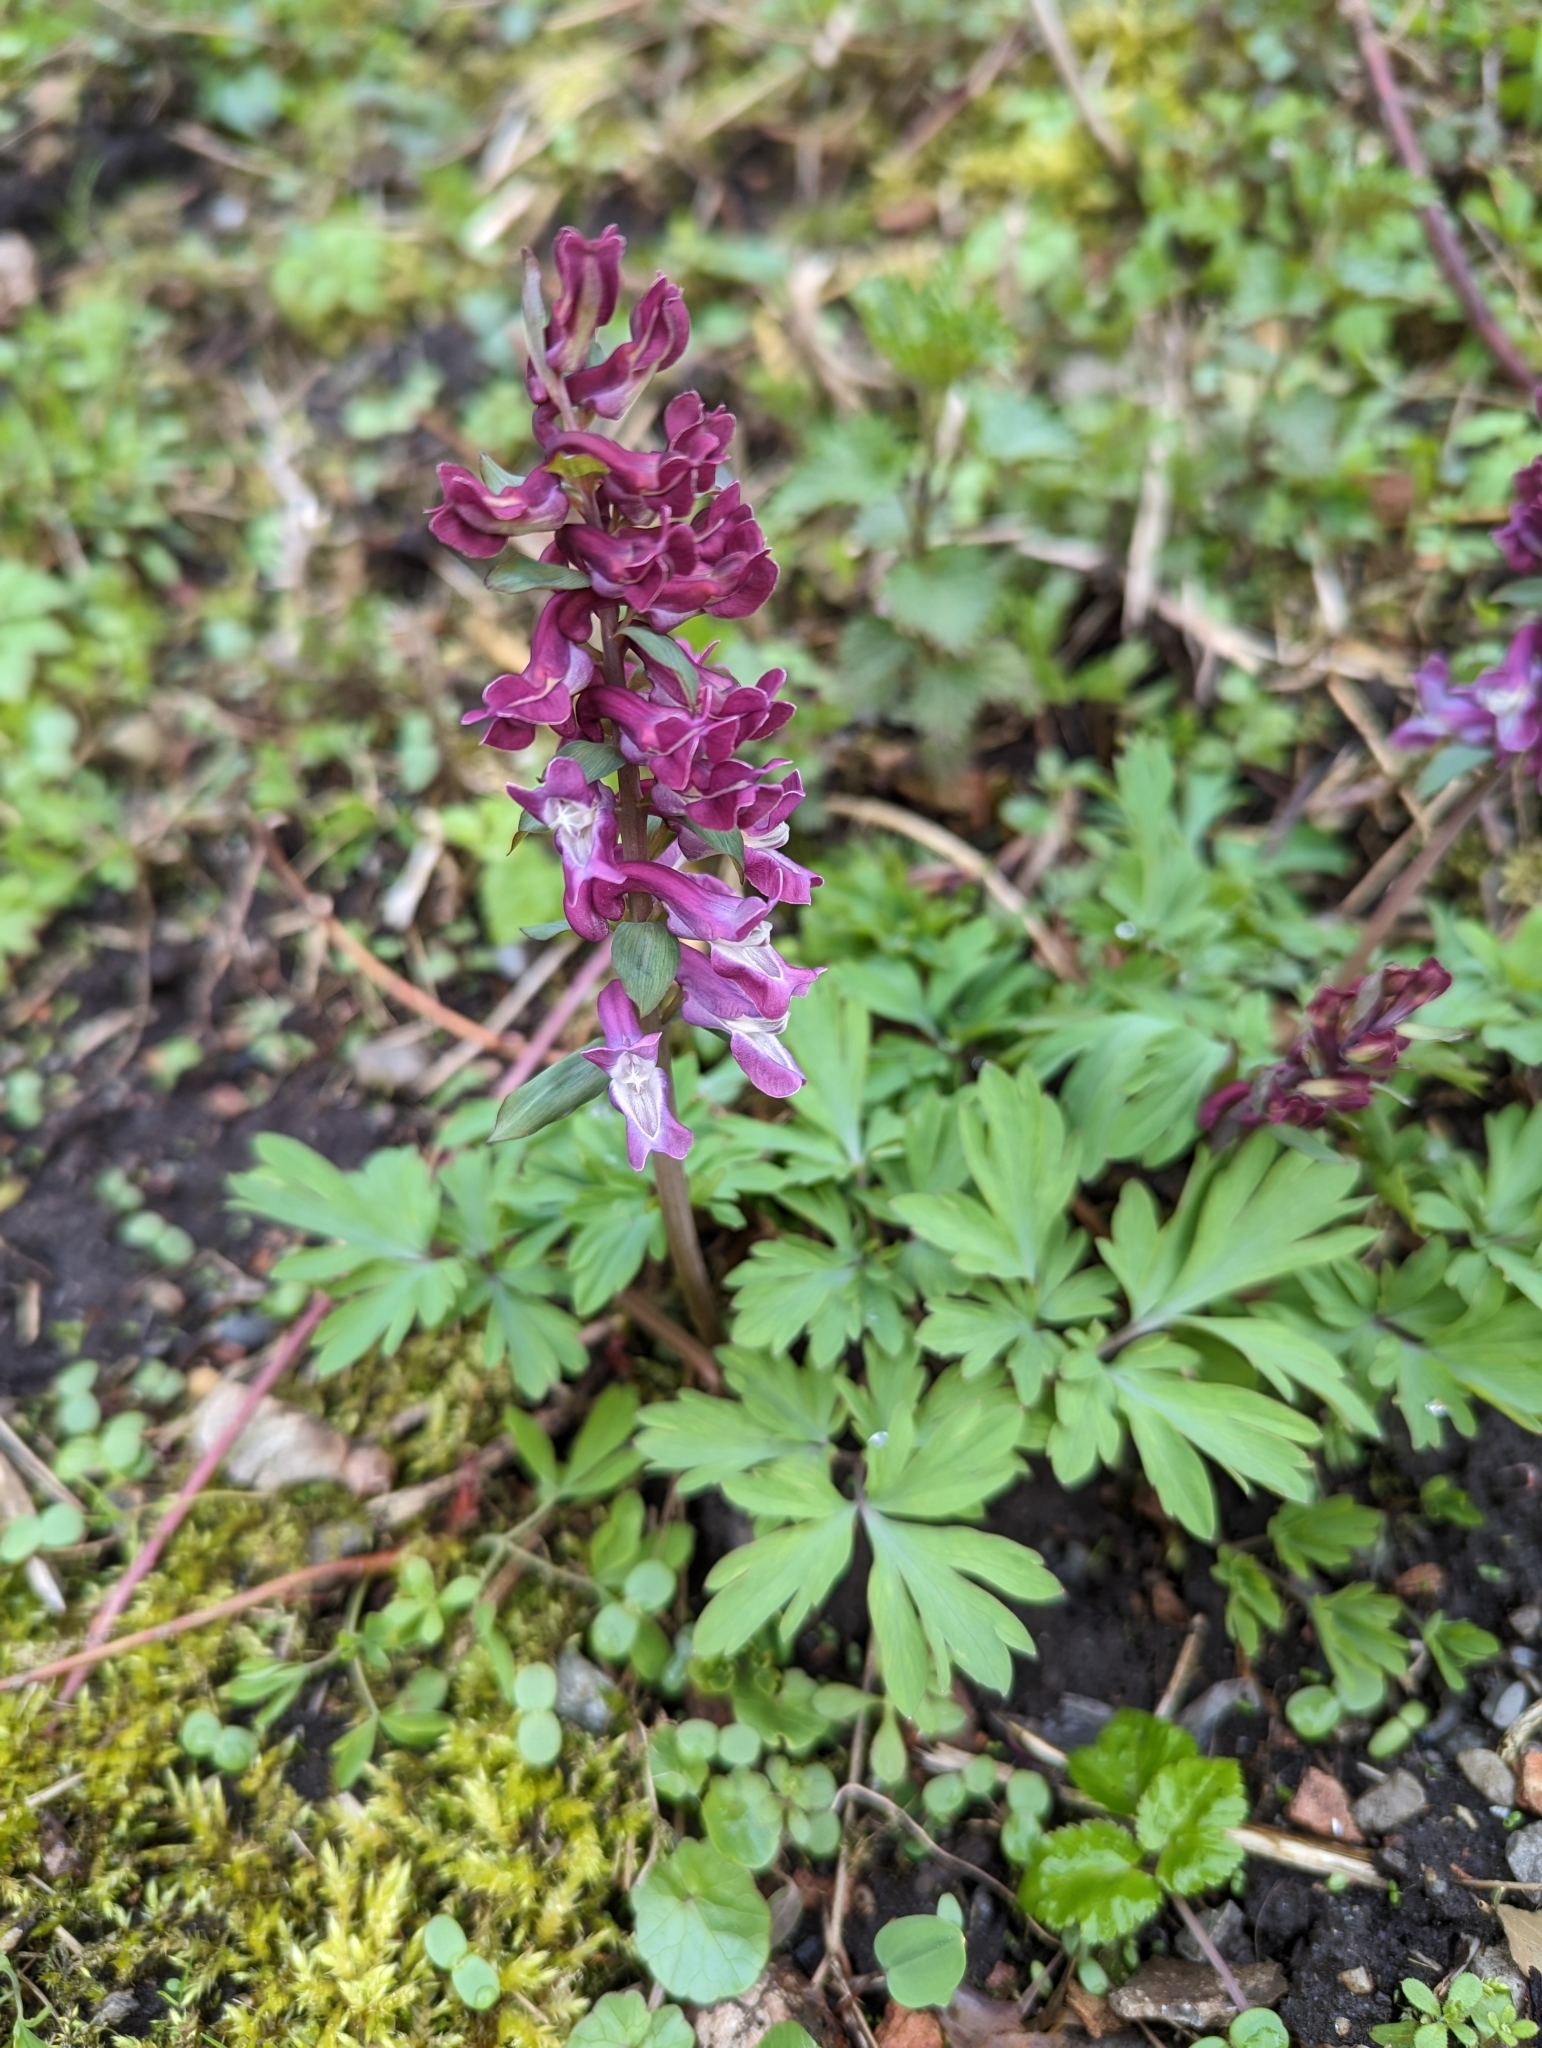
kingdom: Plantae
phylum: Tracheophyta
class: Magnoliopsida
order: Ranunculales
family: Papaveraceae
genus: Corydalis
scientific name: Corydalis cava
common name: Hollowroot
